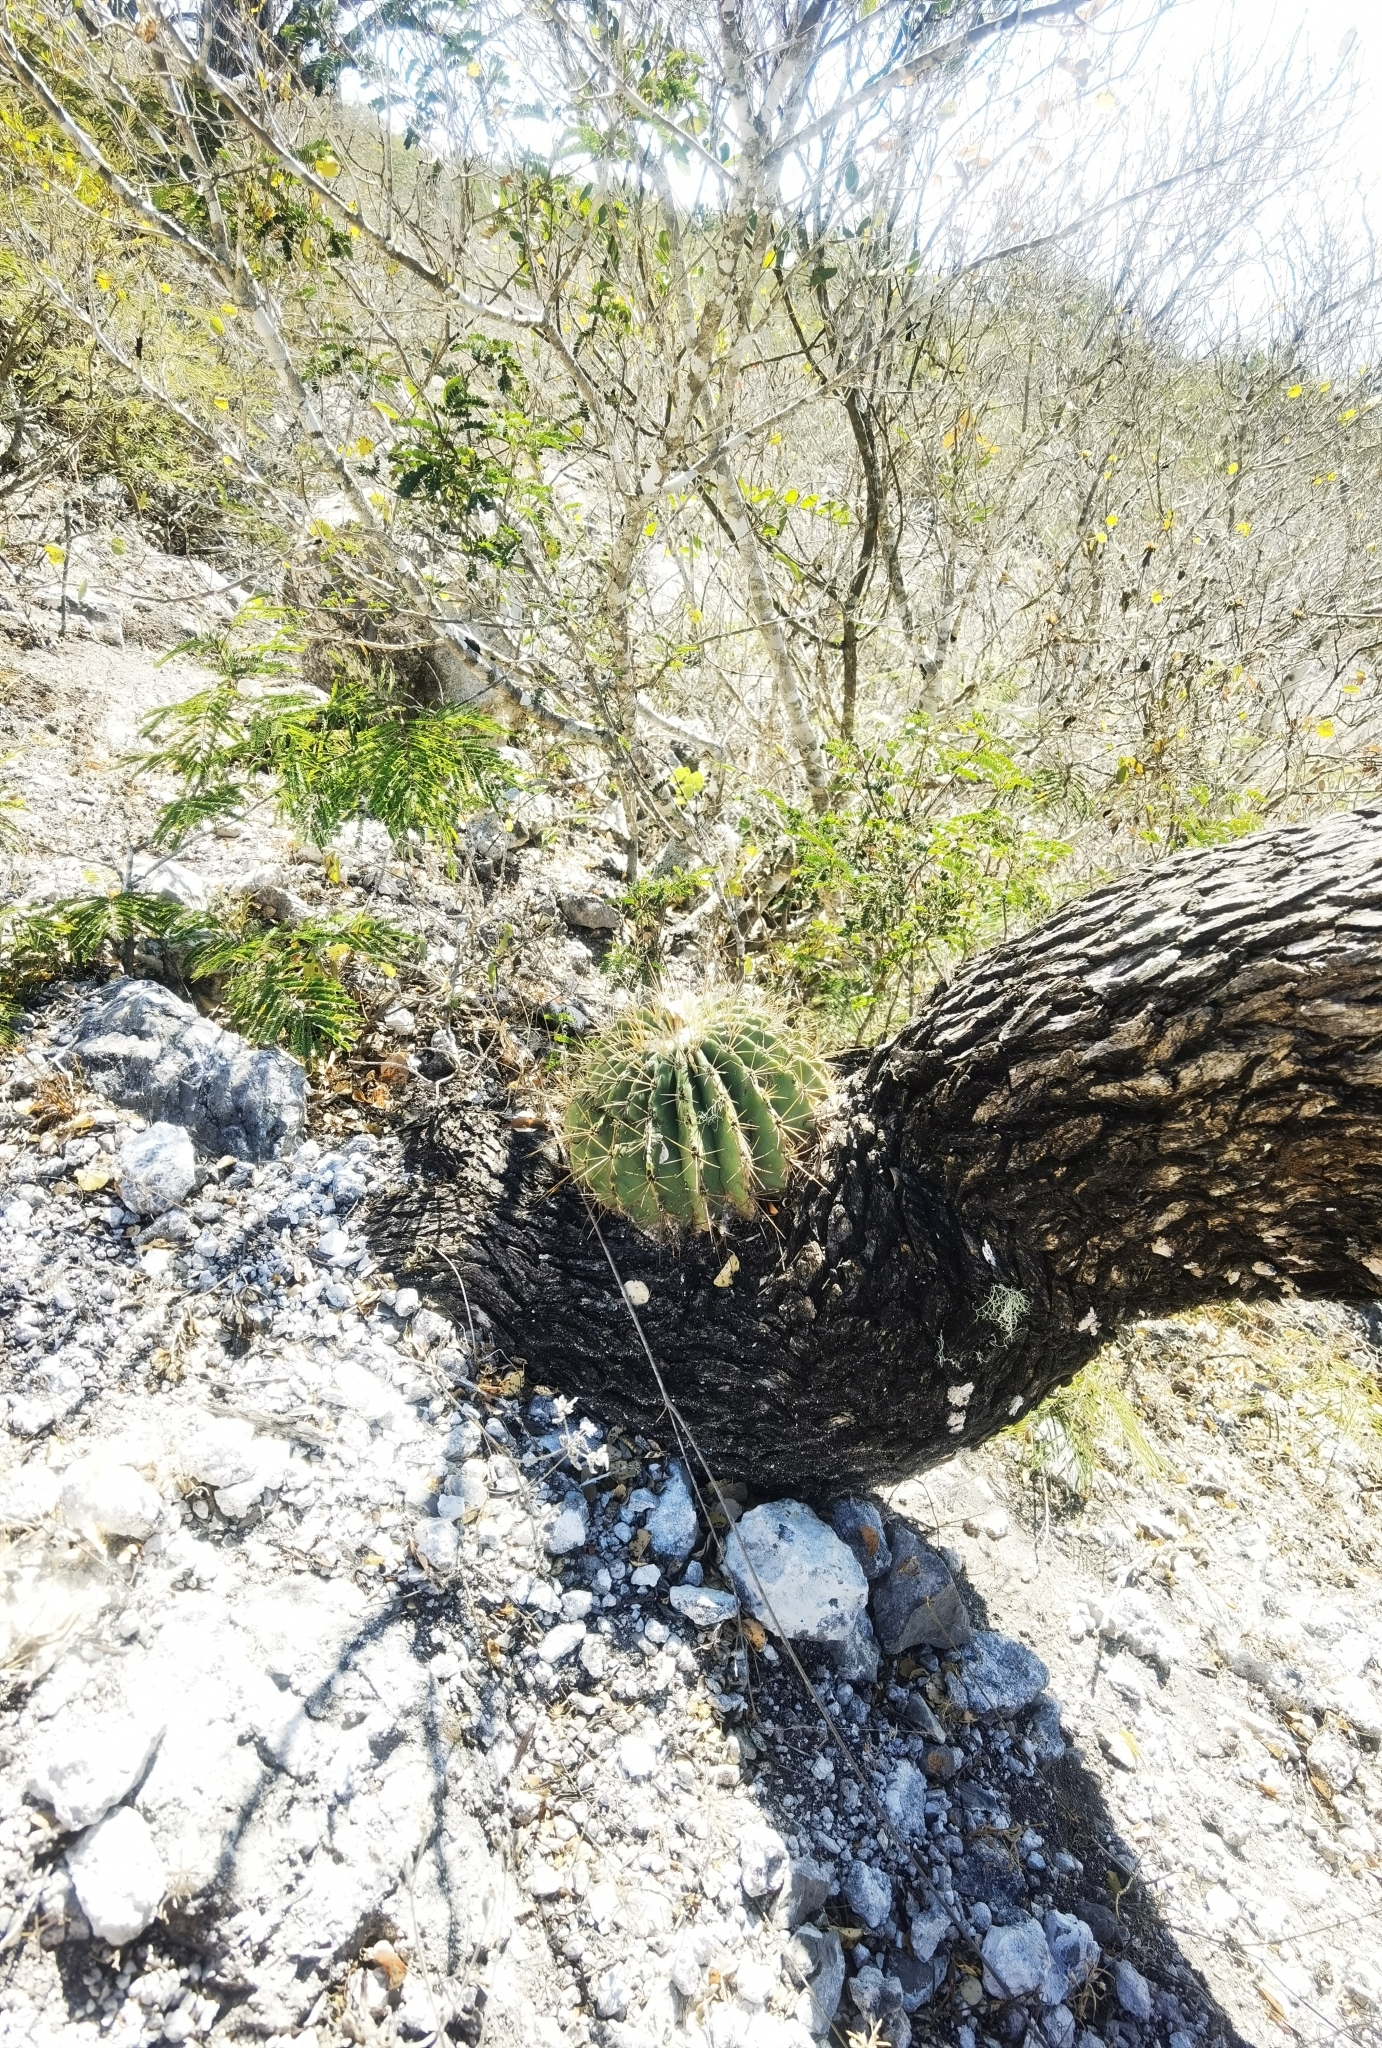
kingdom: Plantae
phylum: Tracheophyta
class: Magnoliopsida
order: Caryophyllales
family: Cactaceae
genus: Parrycactus
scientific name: Parrycactus echidne
